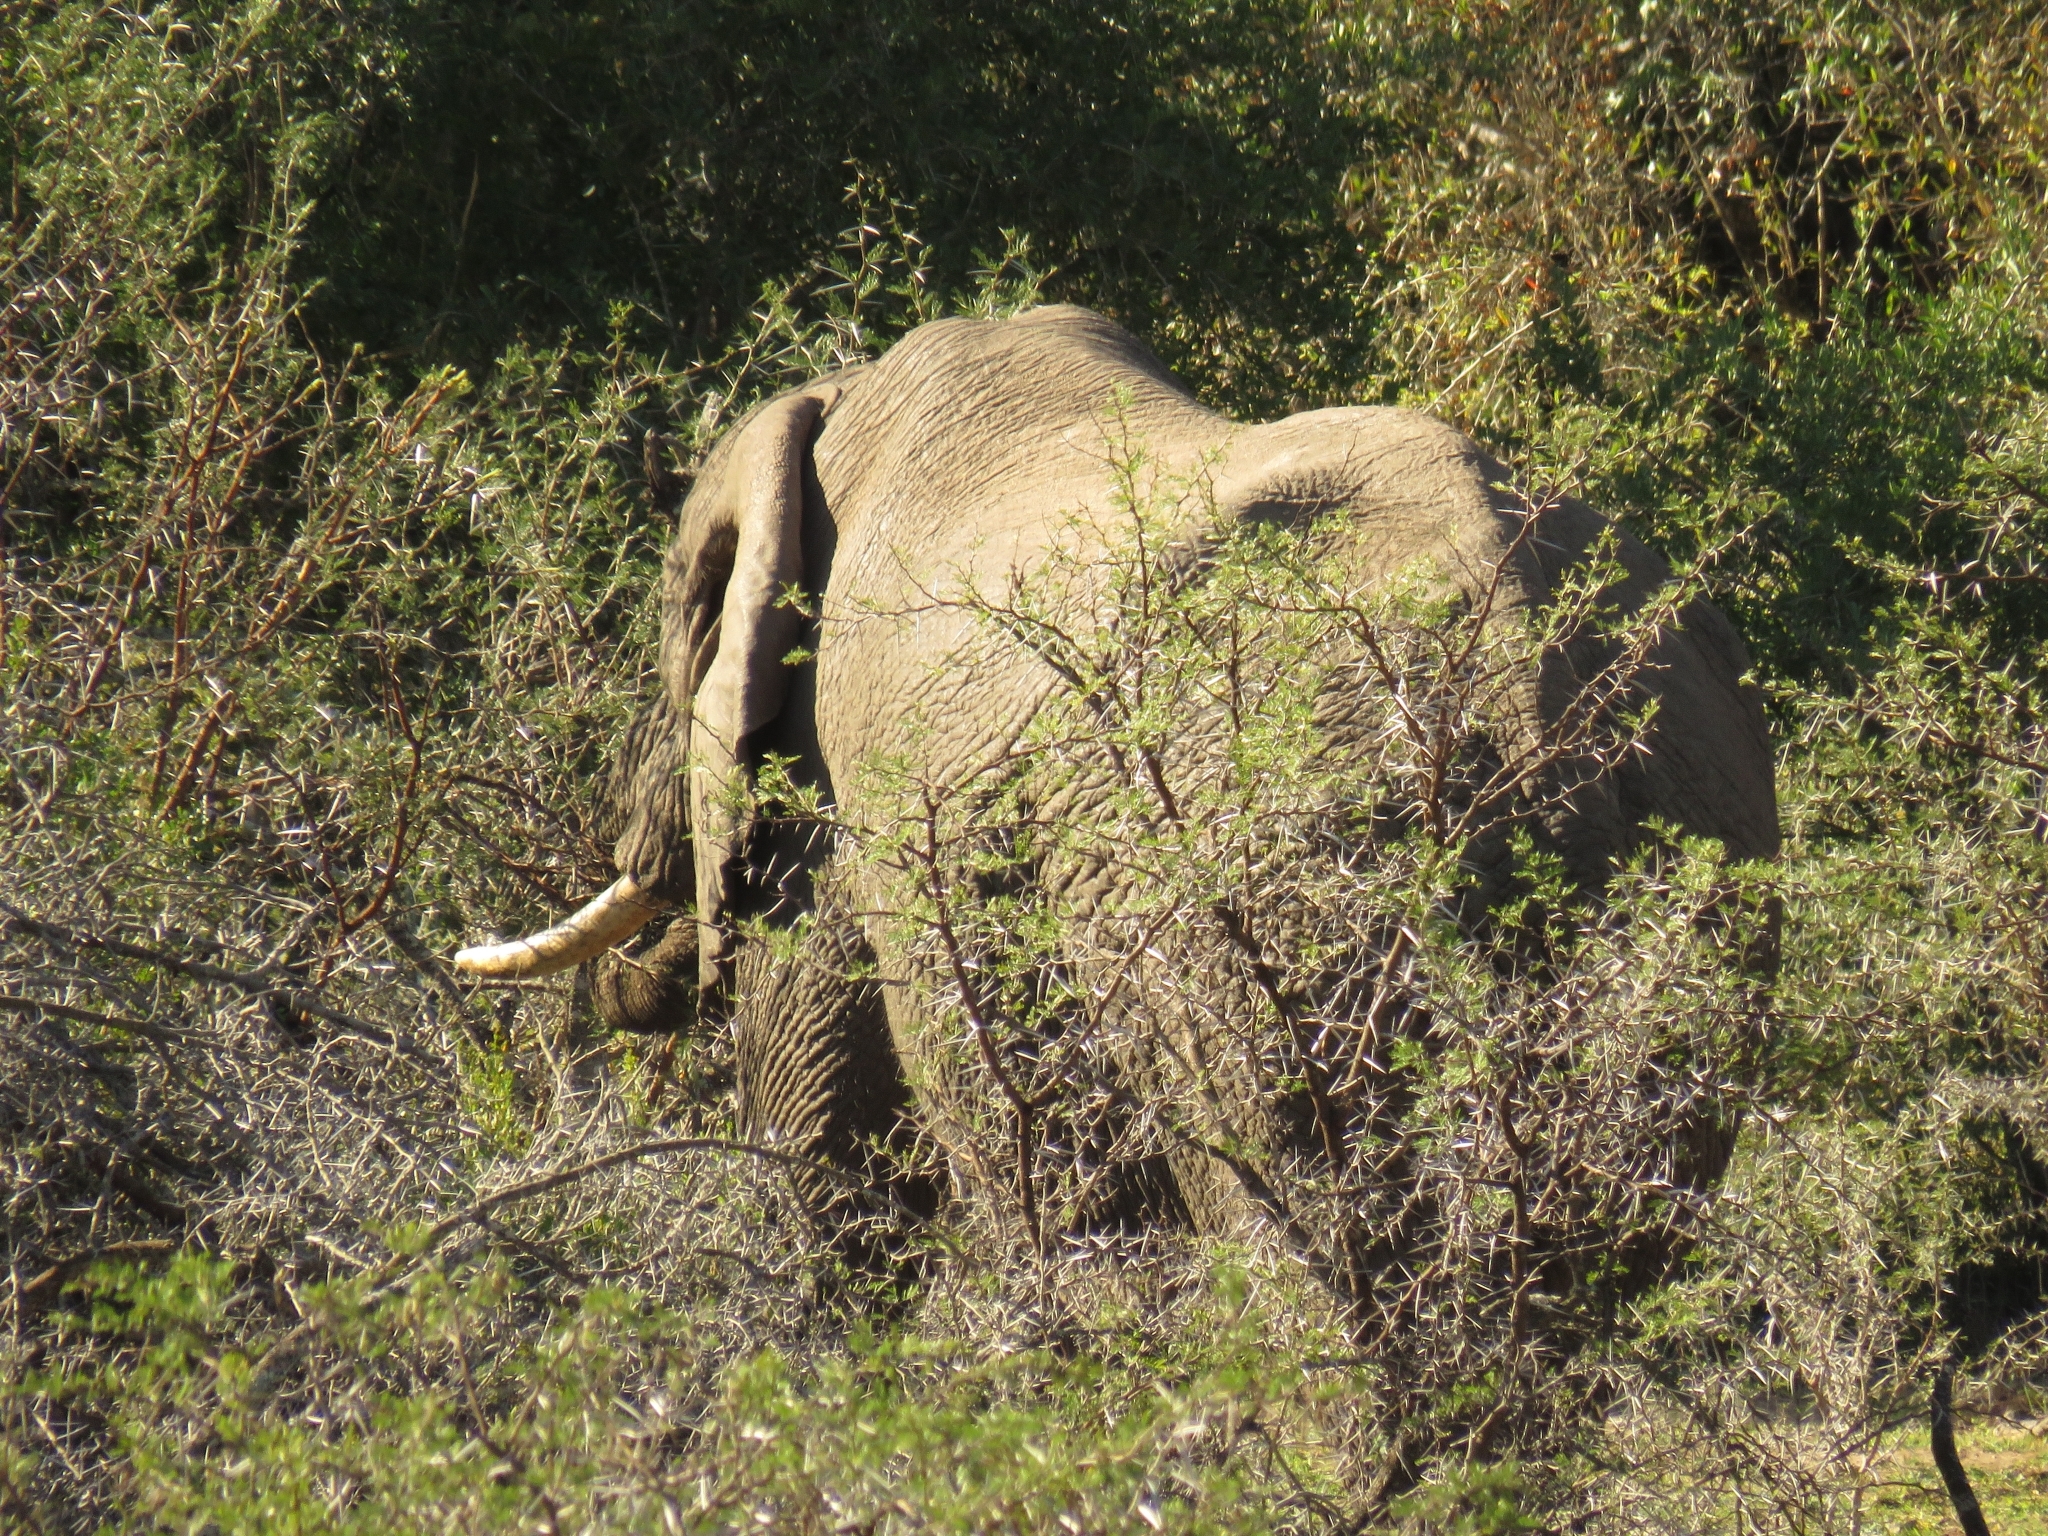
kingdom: Animalia
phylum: Chordata
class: Mammalia
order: Proboscidea
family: Elephantidae
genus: Loxodonta
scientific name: Loxodonta africana
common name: African elephant
